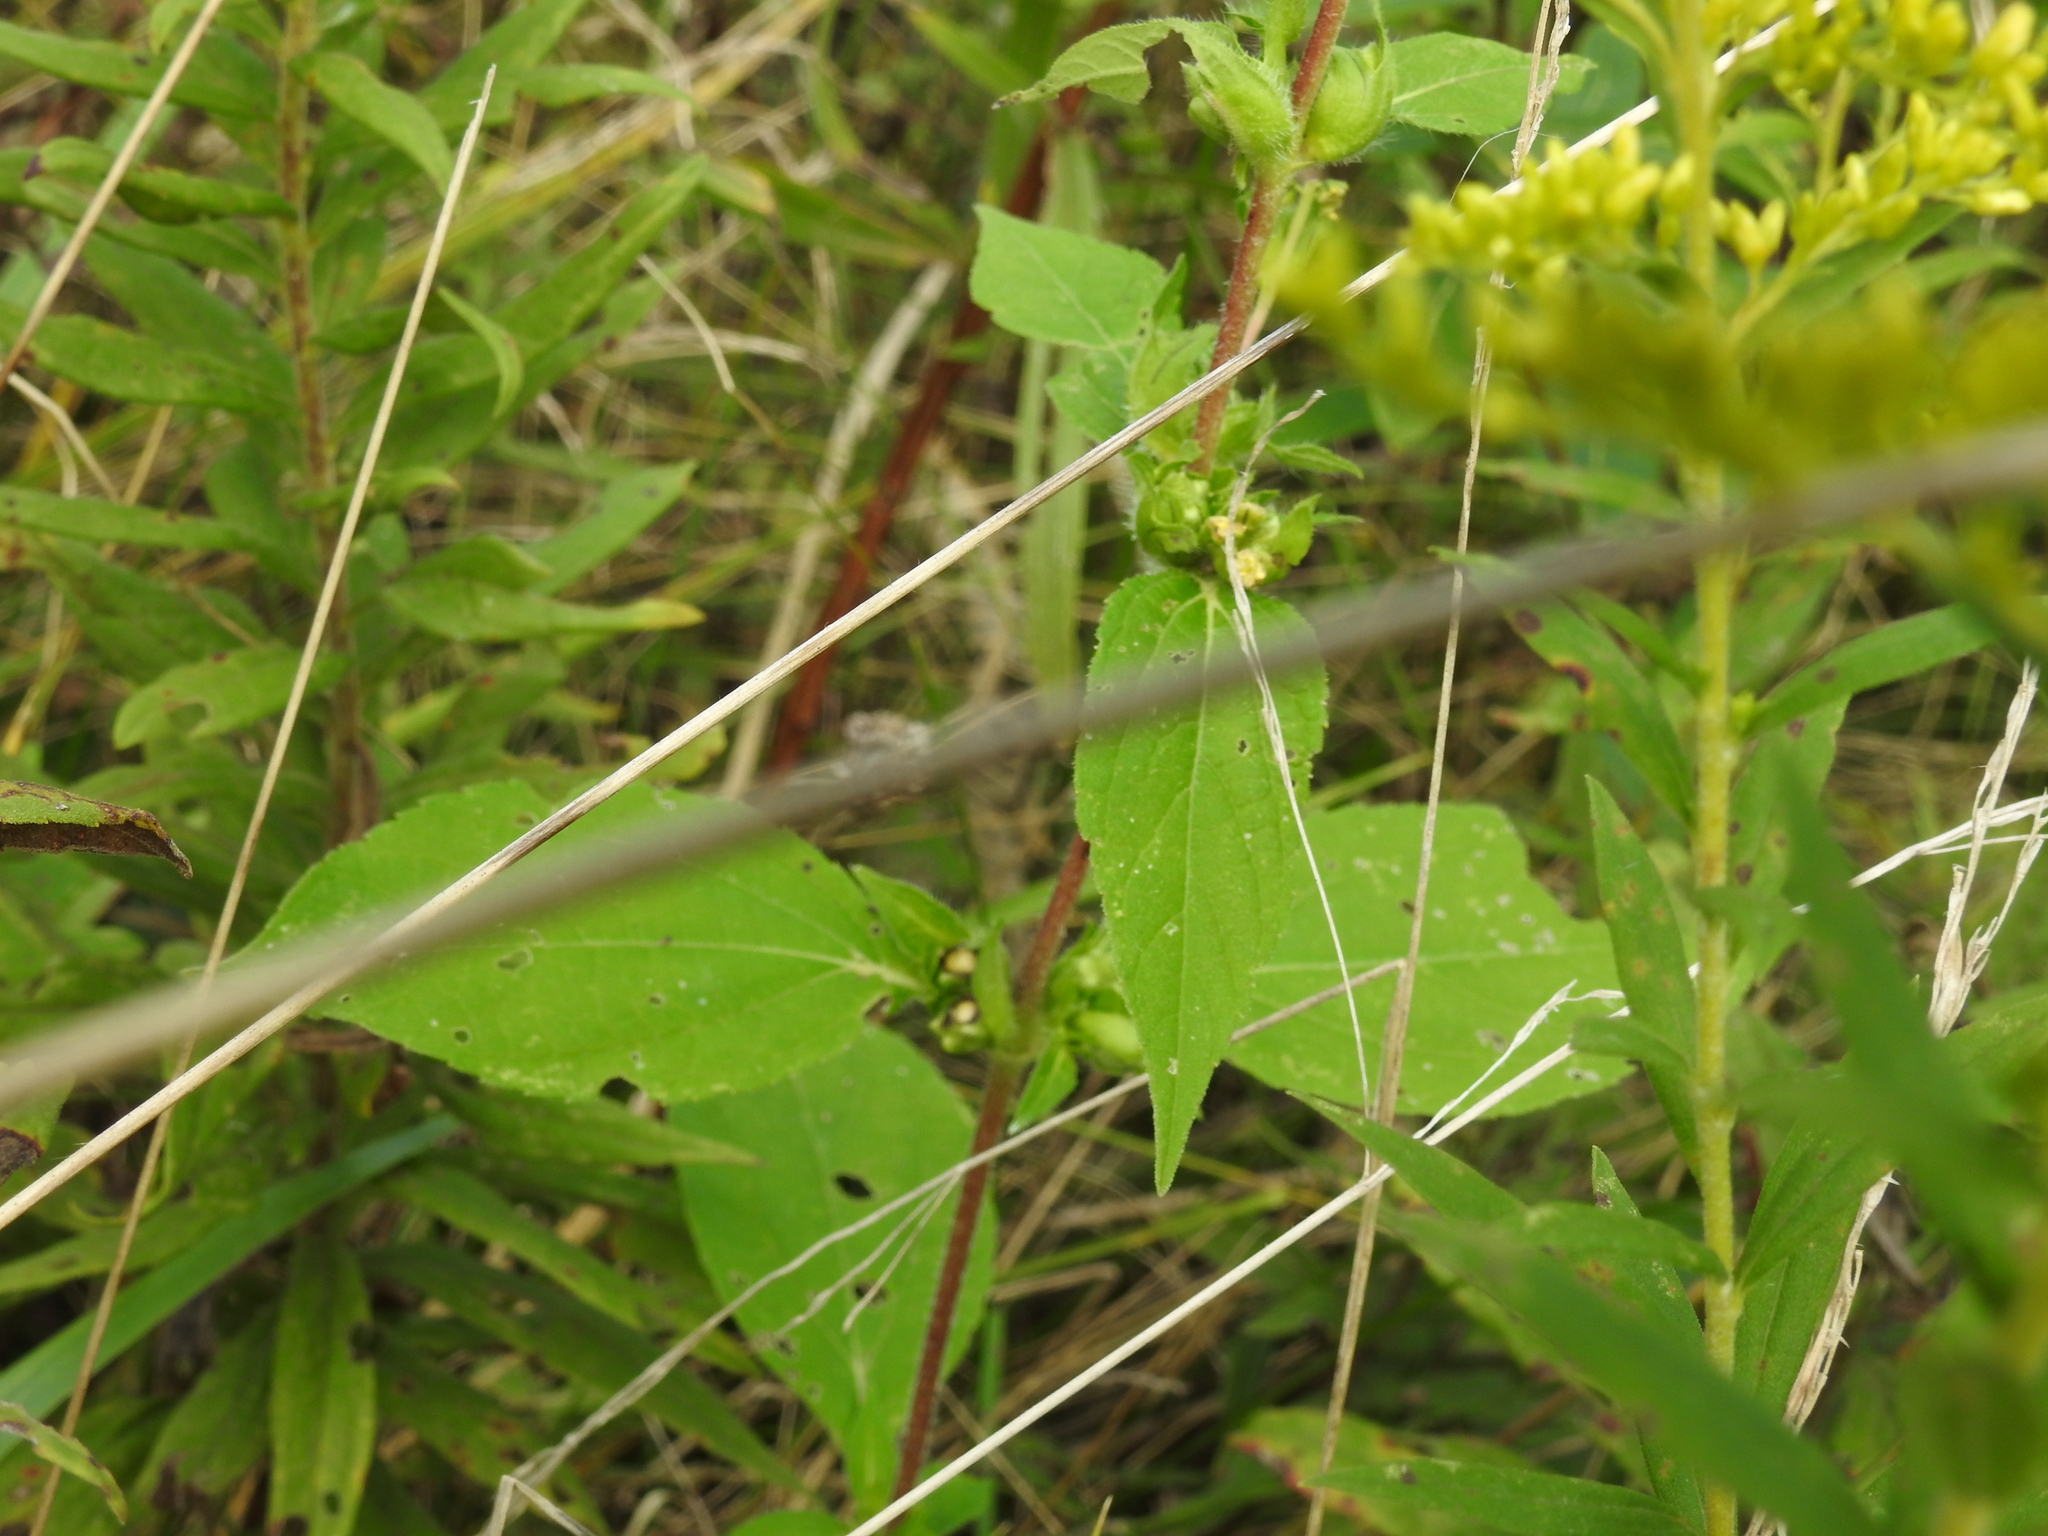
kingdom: Plantae
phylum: Tracheophyta
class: Magnoliopsida
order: Asterales
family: Asteraceae
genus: Ambrosia
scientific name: Ambrosia trifida
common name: Giant ragweed
